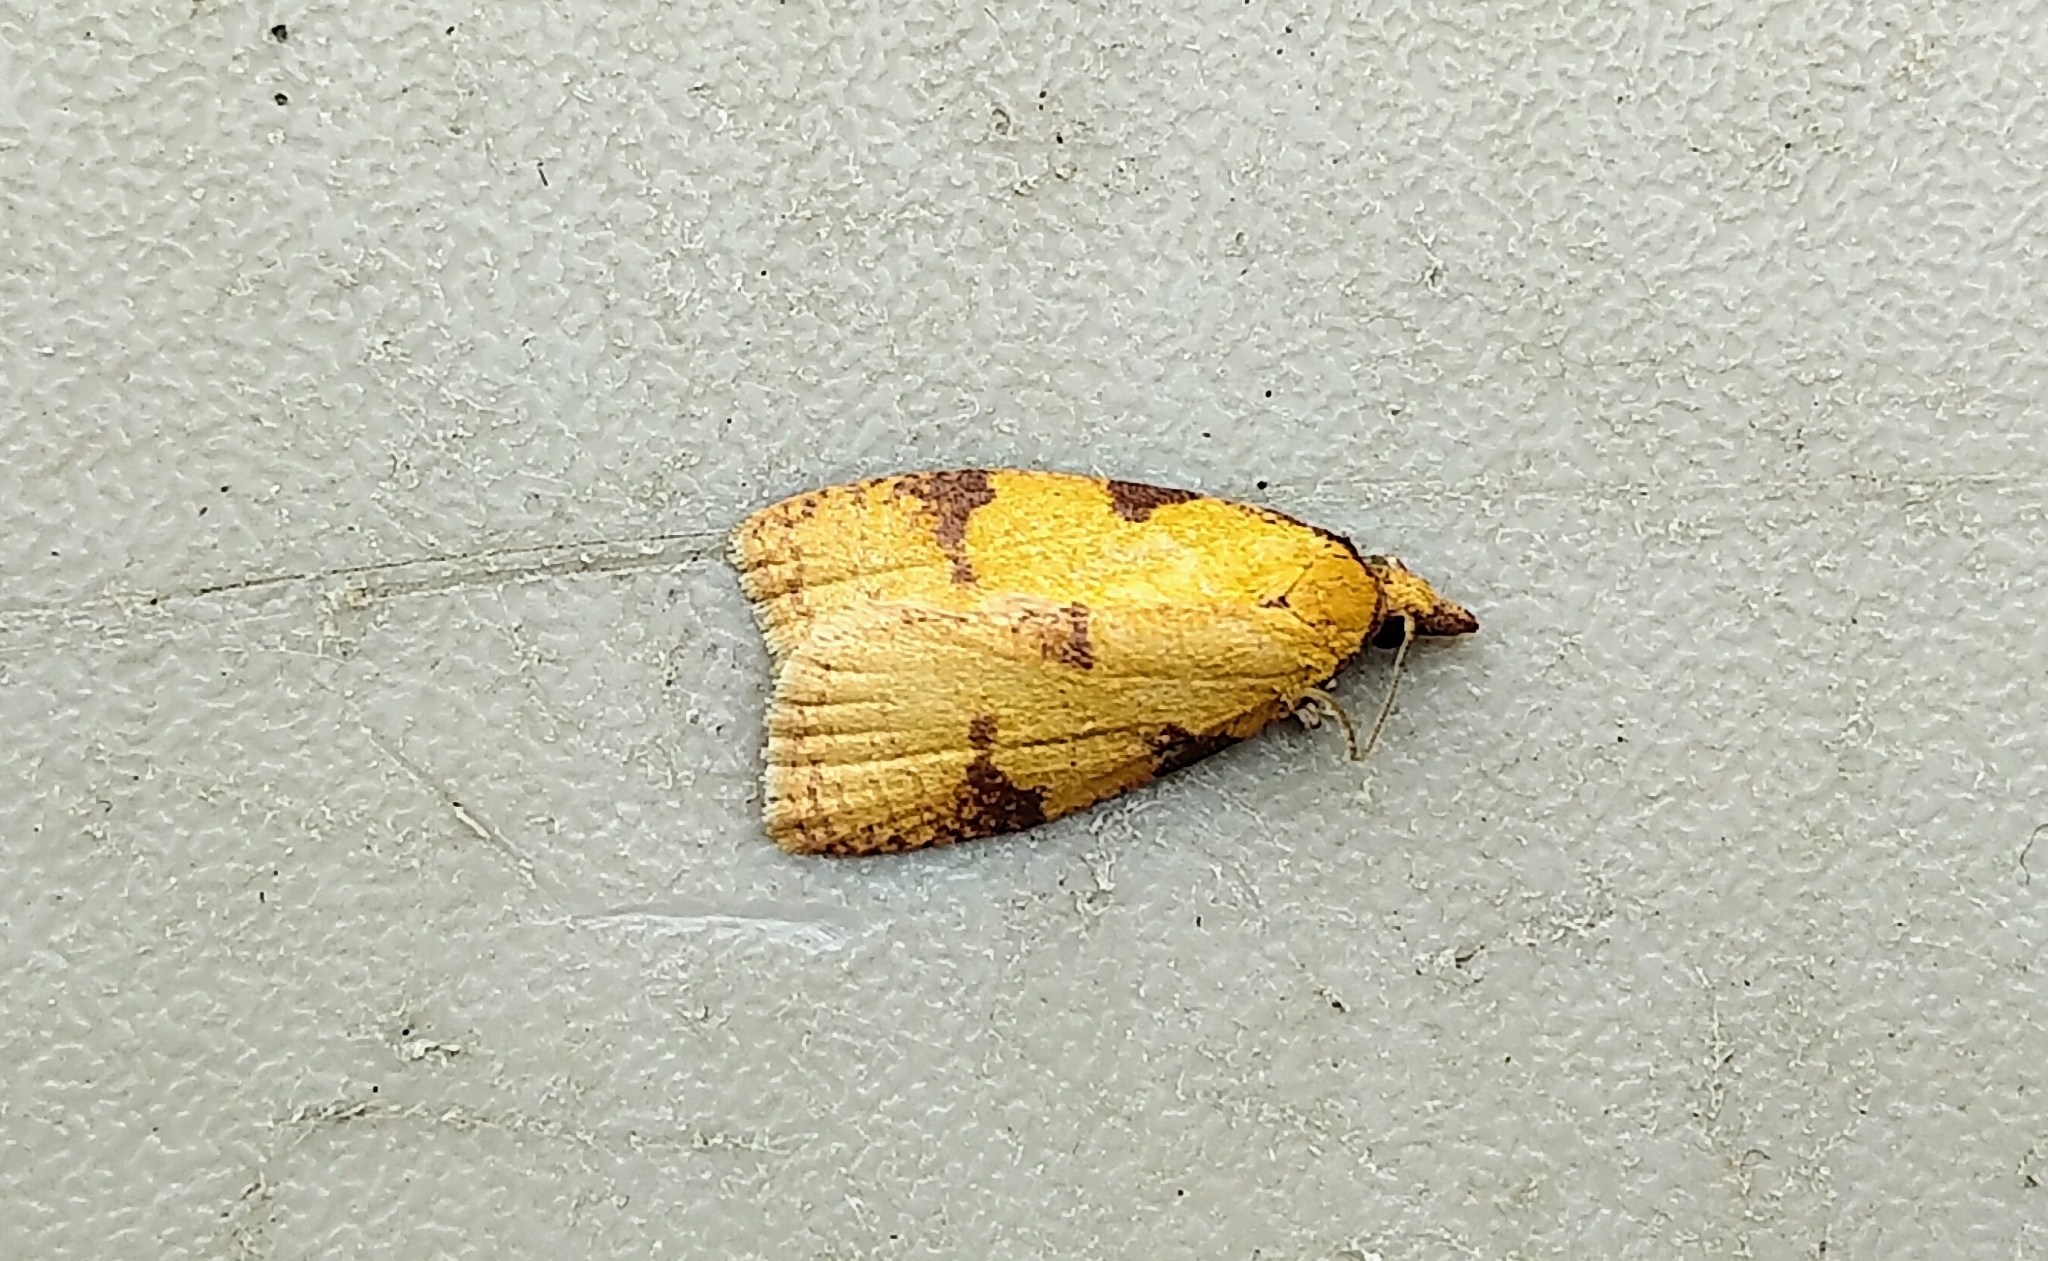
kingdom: Animalia
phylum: Arthropoda
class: Insecta
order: Lepidoptera
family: Tortricidae
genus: Sparganothis
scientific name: Sparganothis unifasciana
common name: One-lined sparganothis moth
